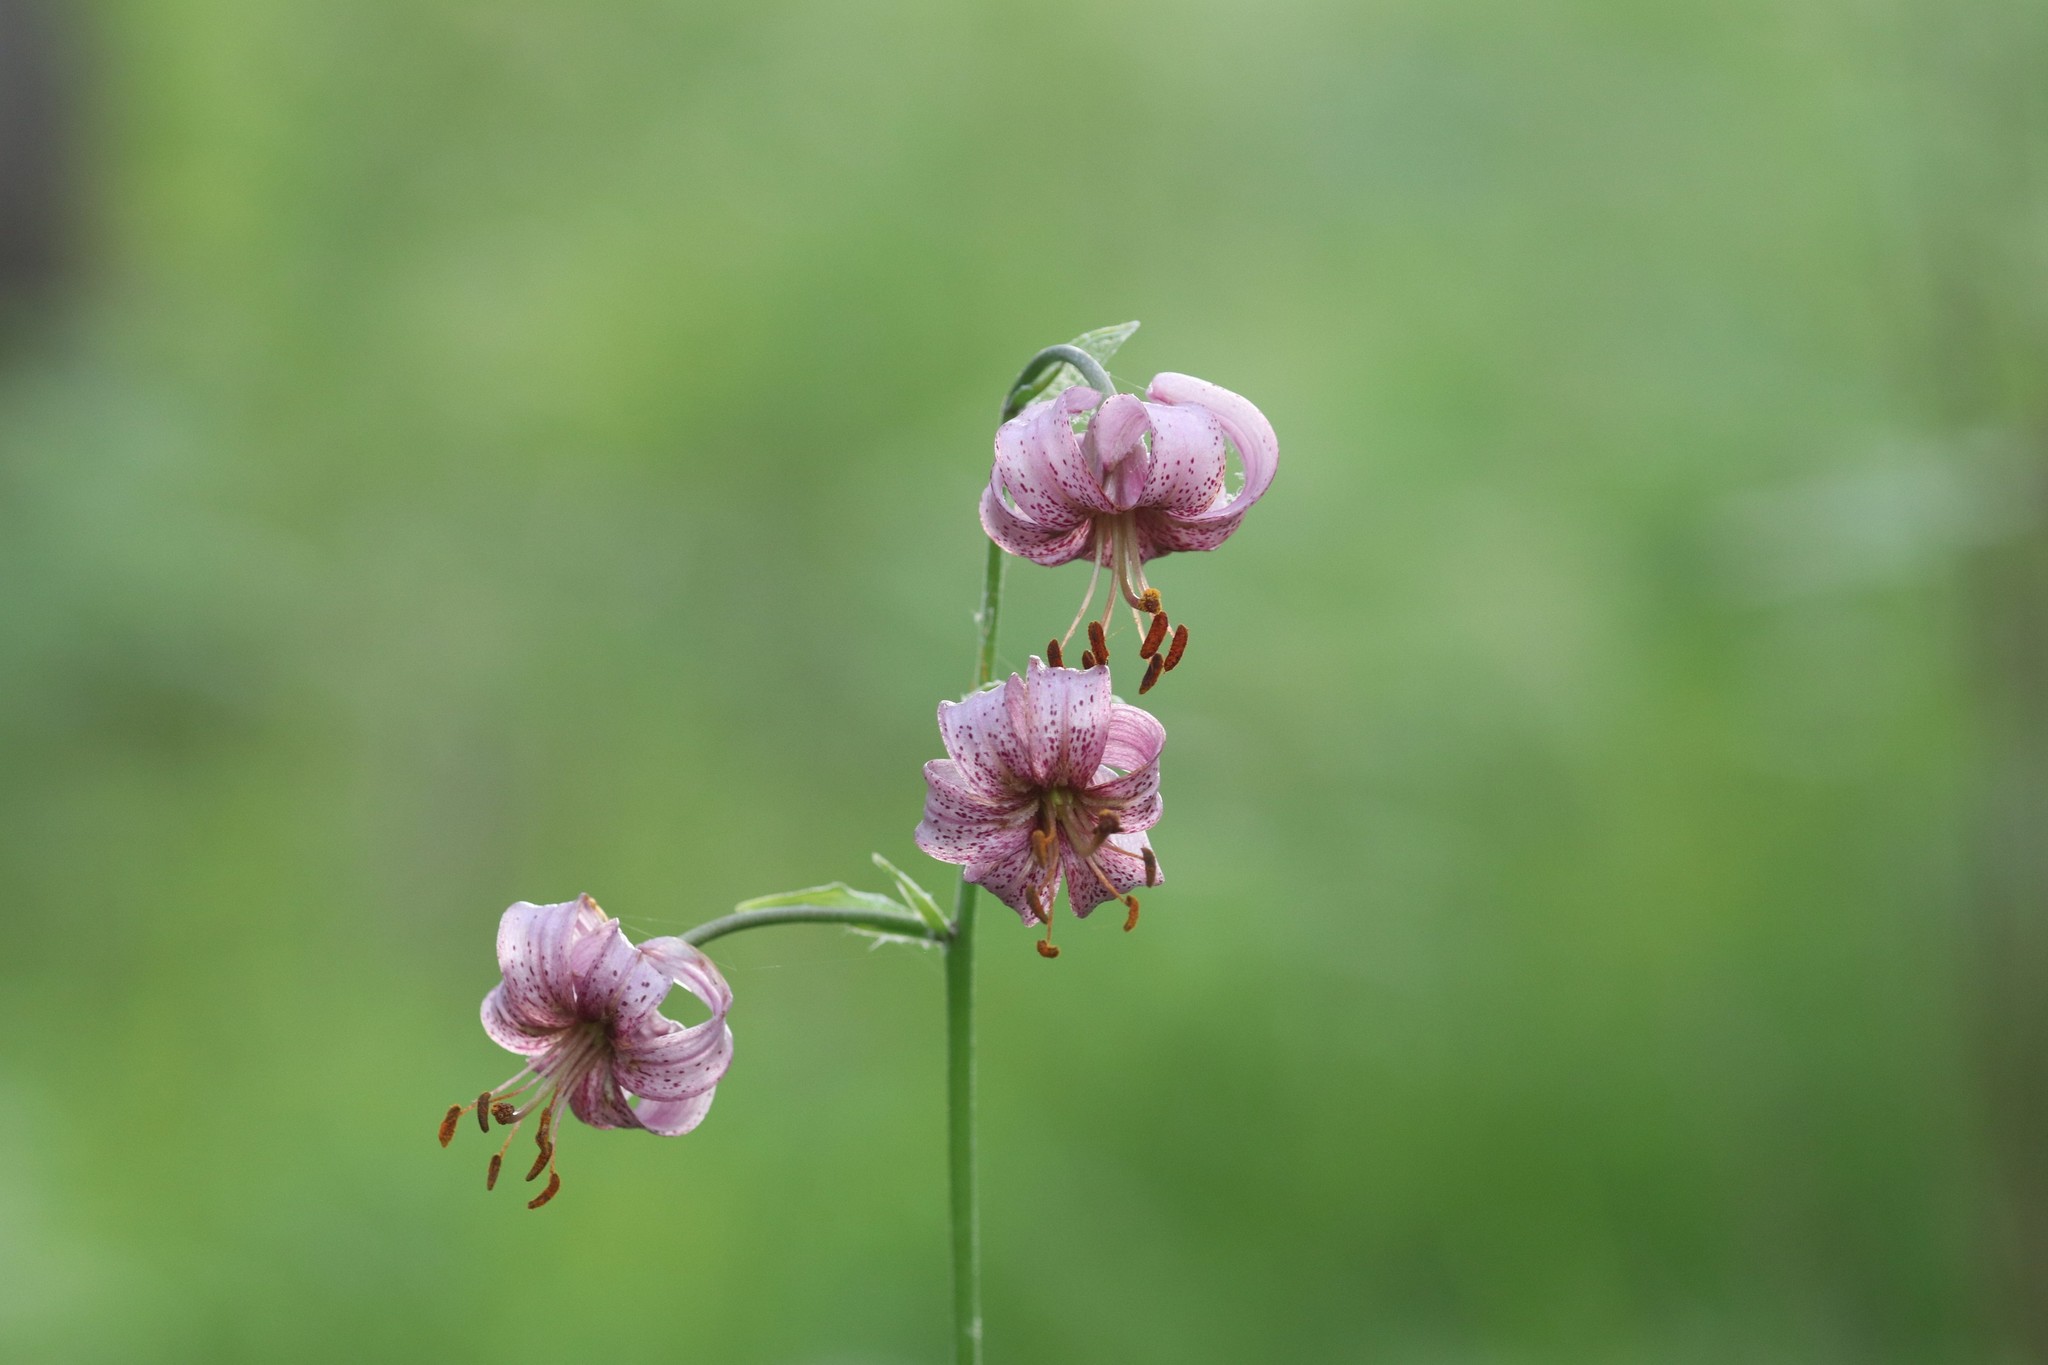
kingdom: Plantae
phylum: Tracheophyta
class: Liliopsida
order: Liliales
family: Liliaceae
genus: Lilium
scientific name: Lilium martagon
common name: Martagon lily
